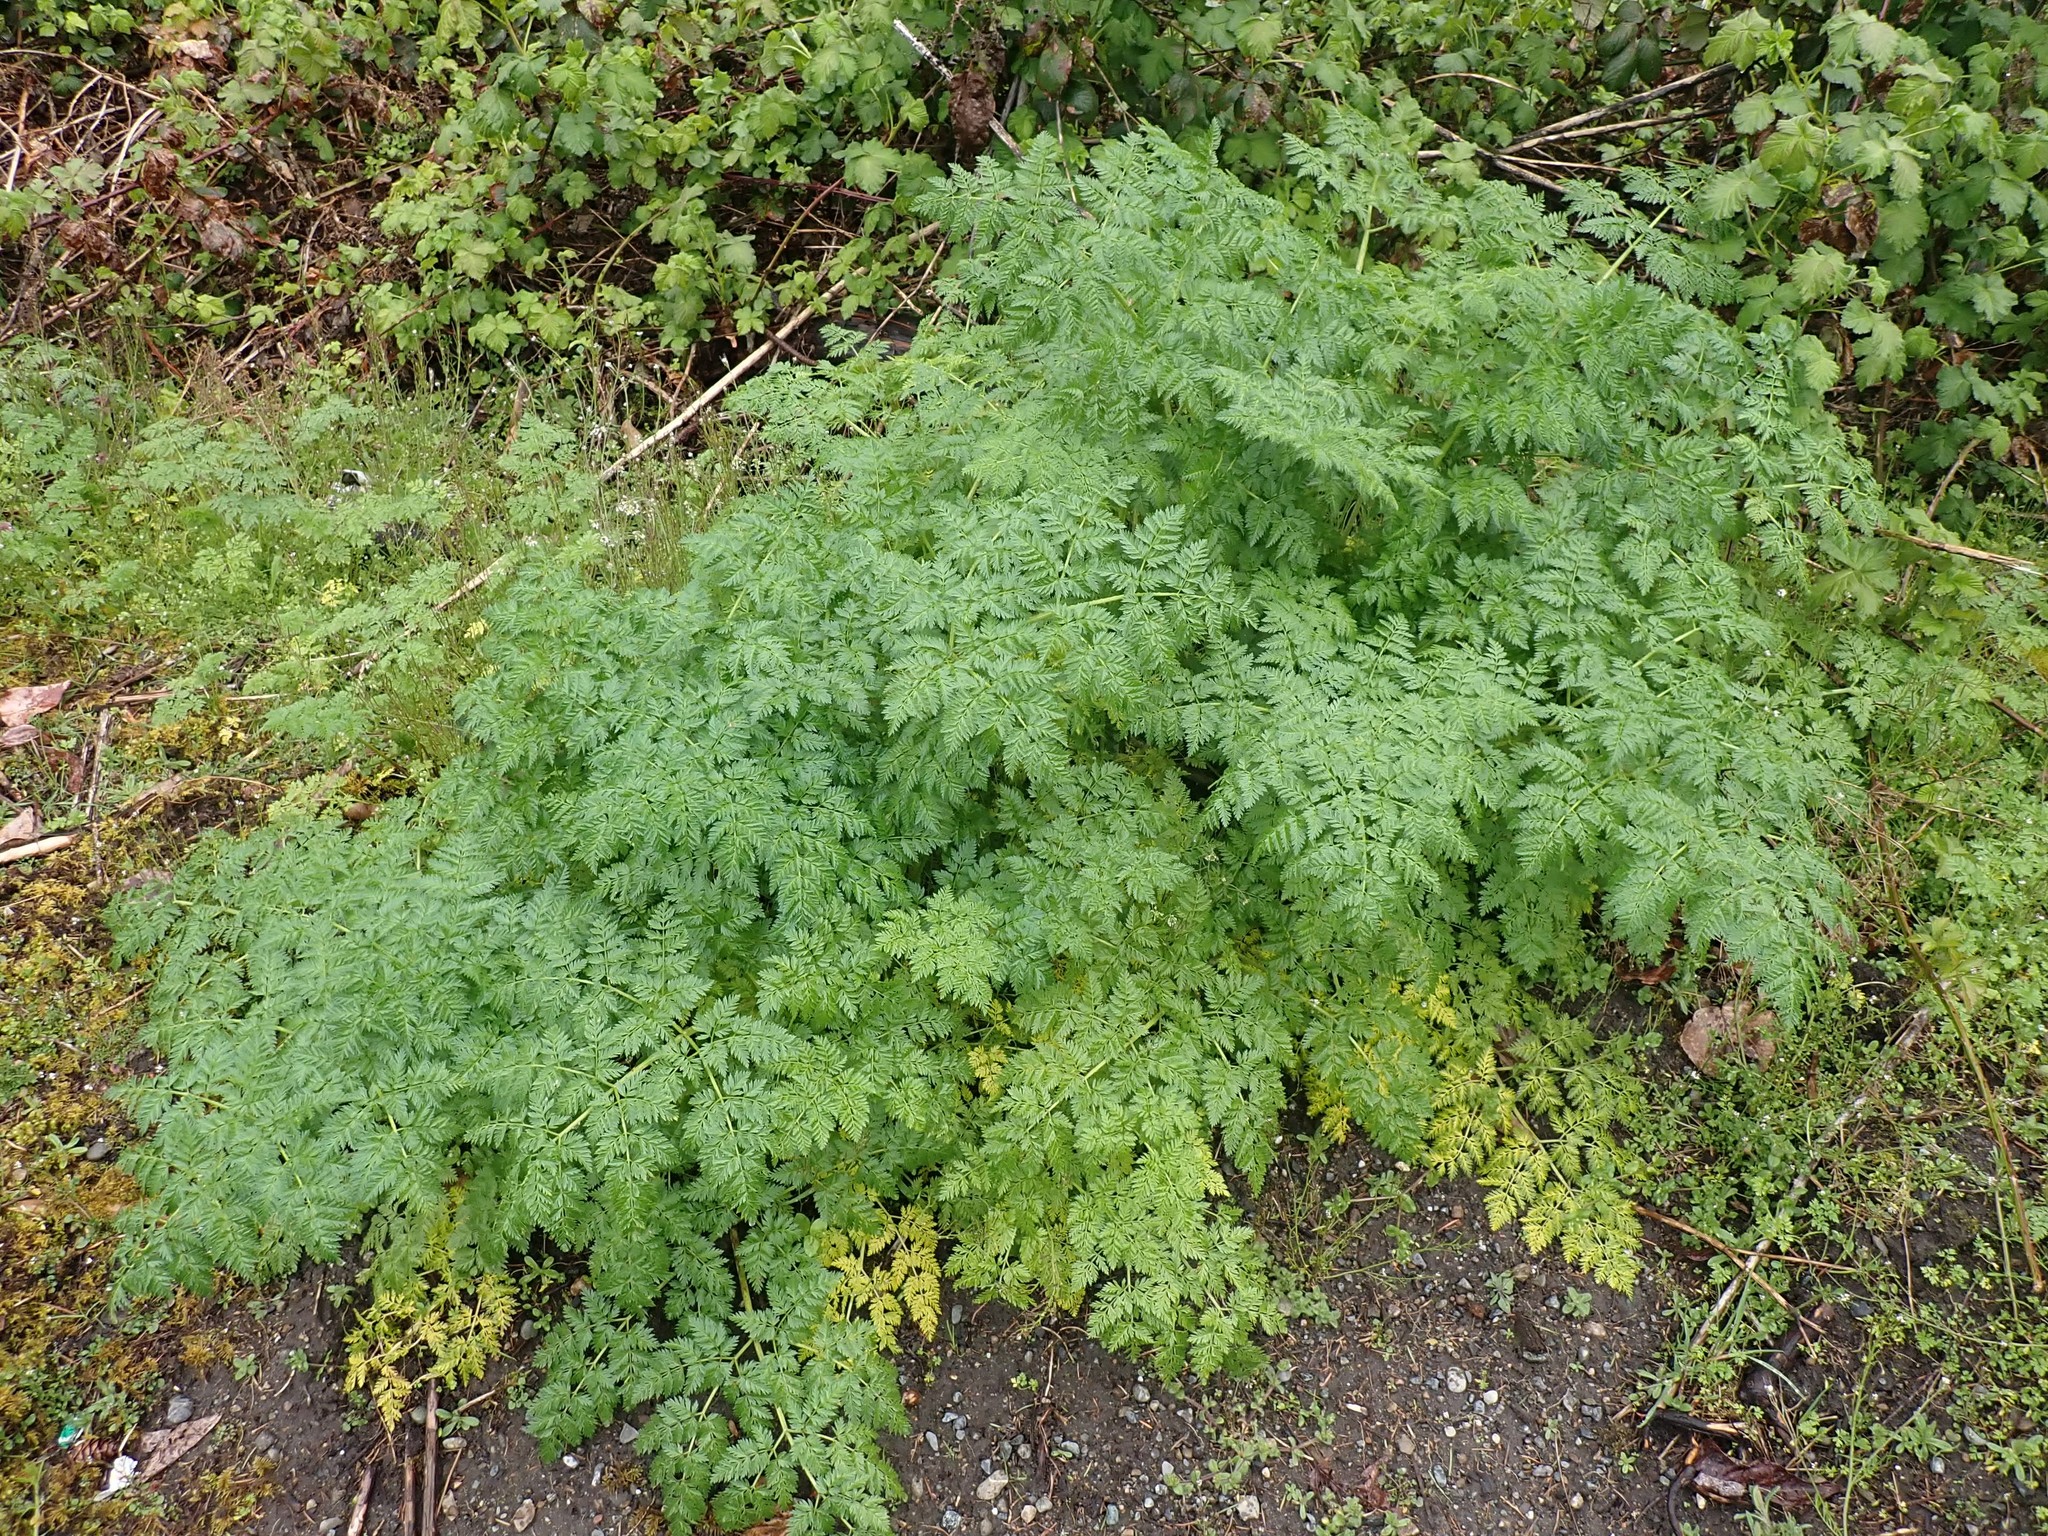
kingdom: Plantae
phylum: Tracheophyta
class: Magnoliopsida
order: Apiales
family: Apiaceae
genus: Conium
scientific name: Conium maculatum
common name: Hemlock
